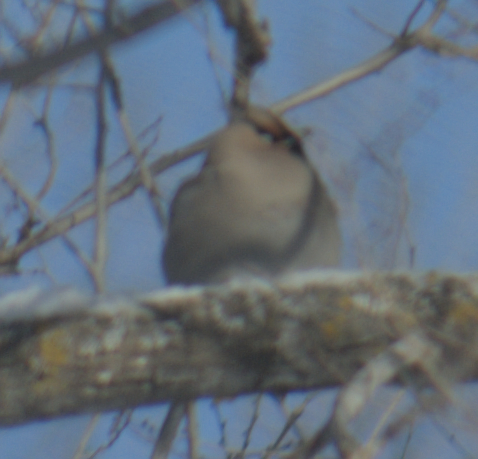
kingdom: Animalia
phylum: Chordata
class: Aves
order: Passeriformes
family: Bombycillidae
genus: Bombycilla
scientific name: Bombycilla garrulus
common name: Bohemian waxwing
